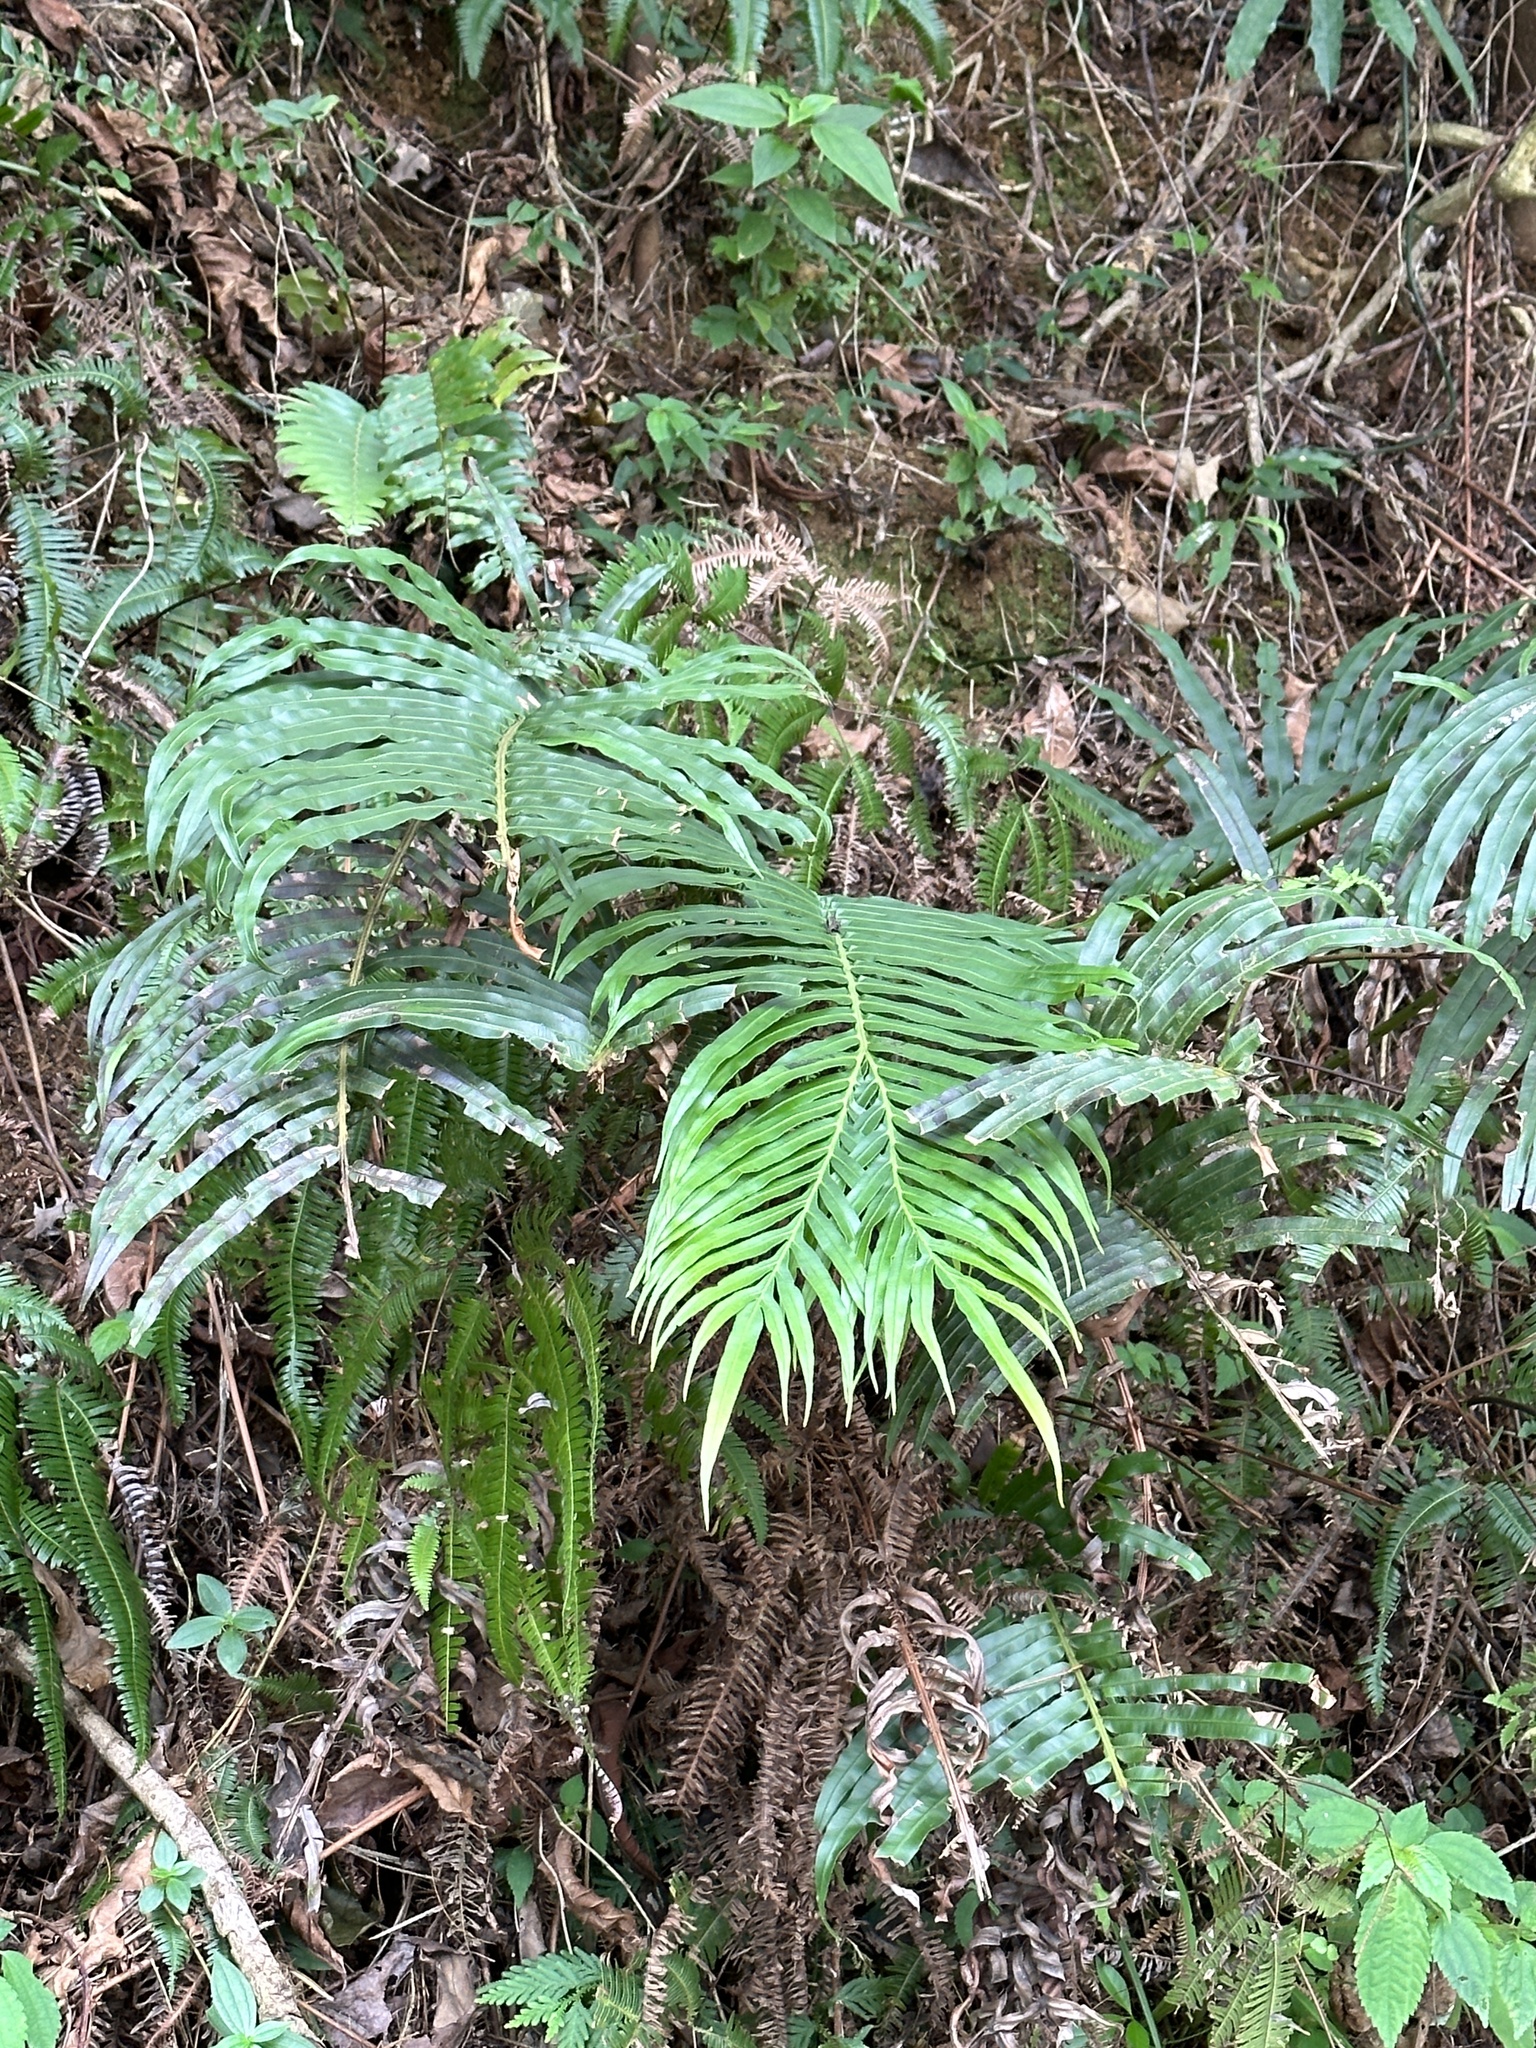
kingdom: Plantae
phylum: Tracheophyta
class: Polypodiopsida
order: Polypodiales
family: Blechnaceae
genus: Blechnopsis
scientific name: Blechnopsis orientalis
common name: Oriental blechnum
